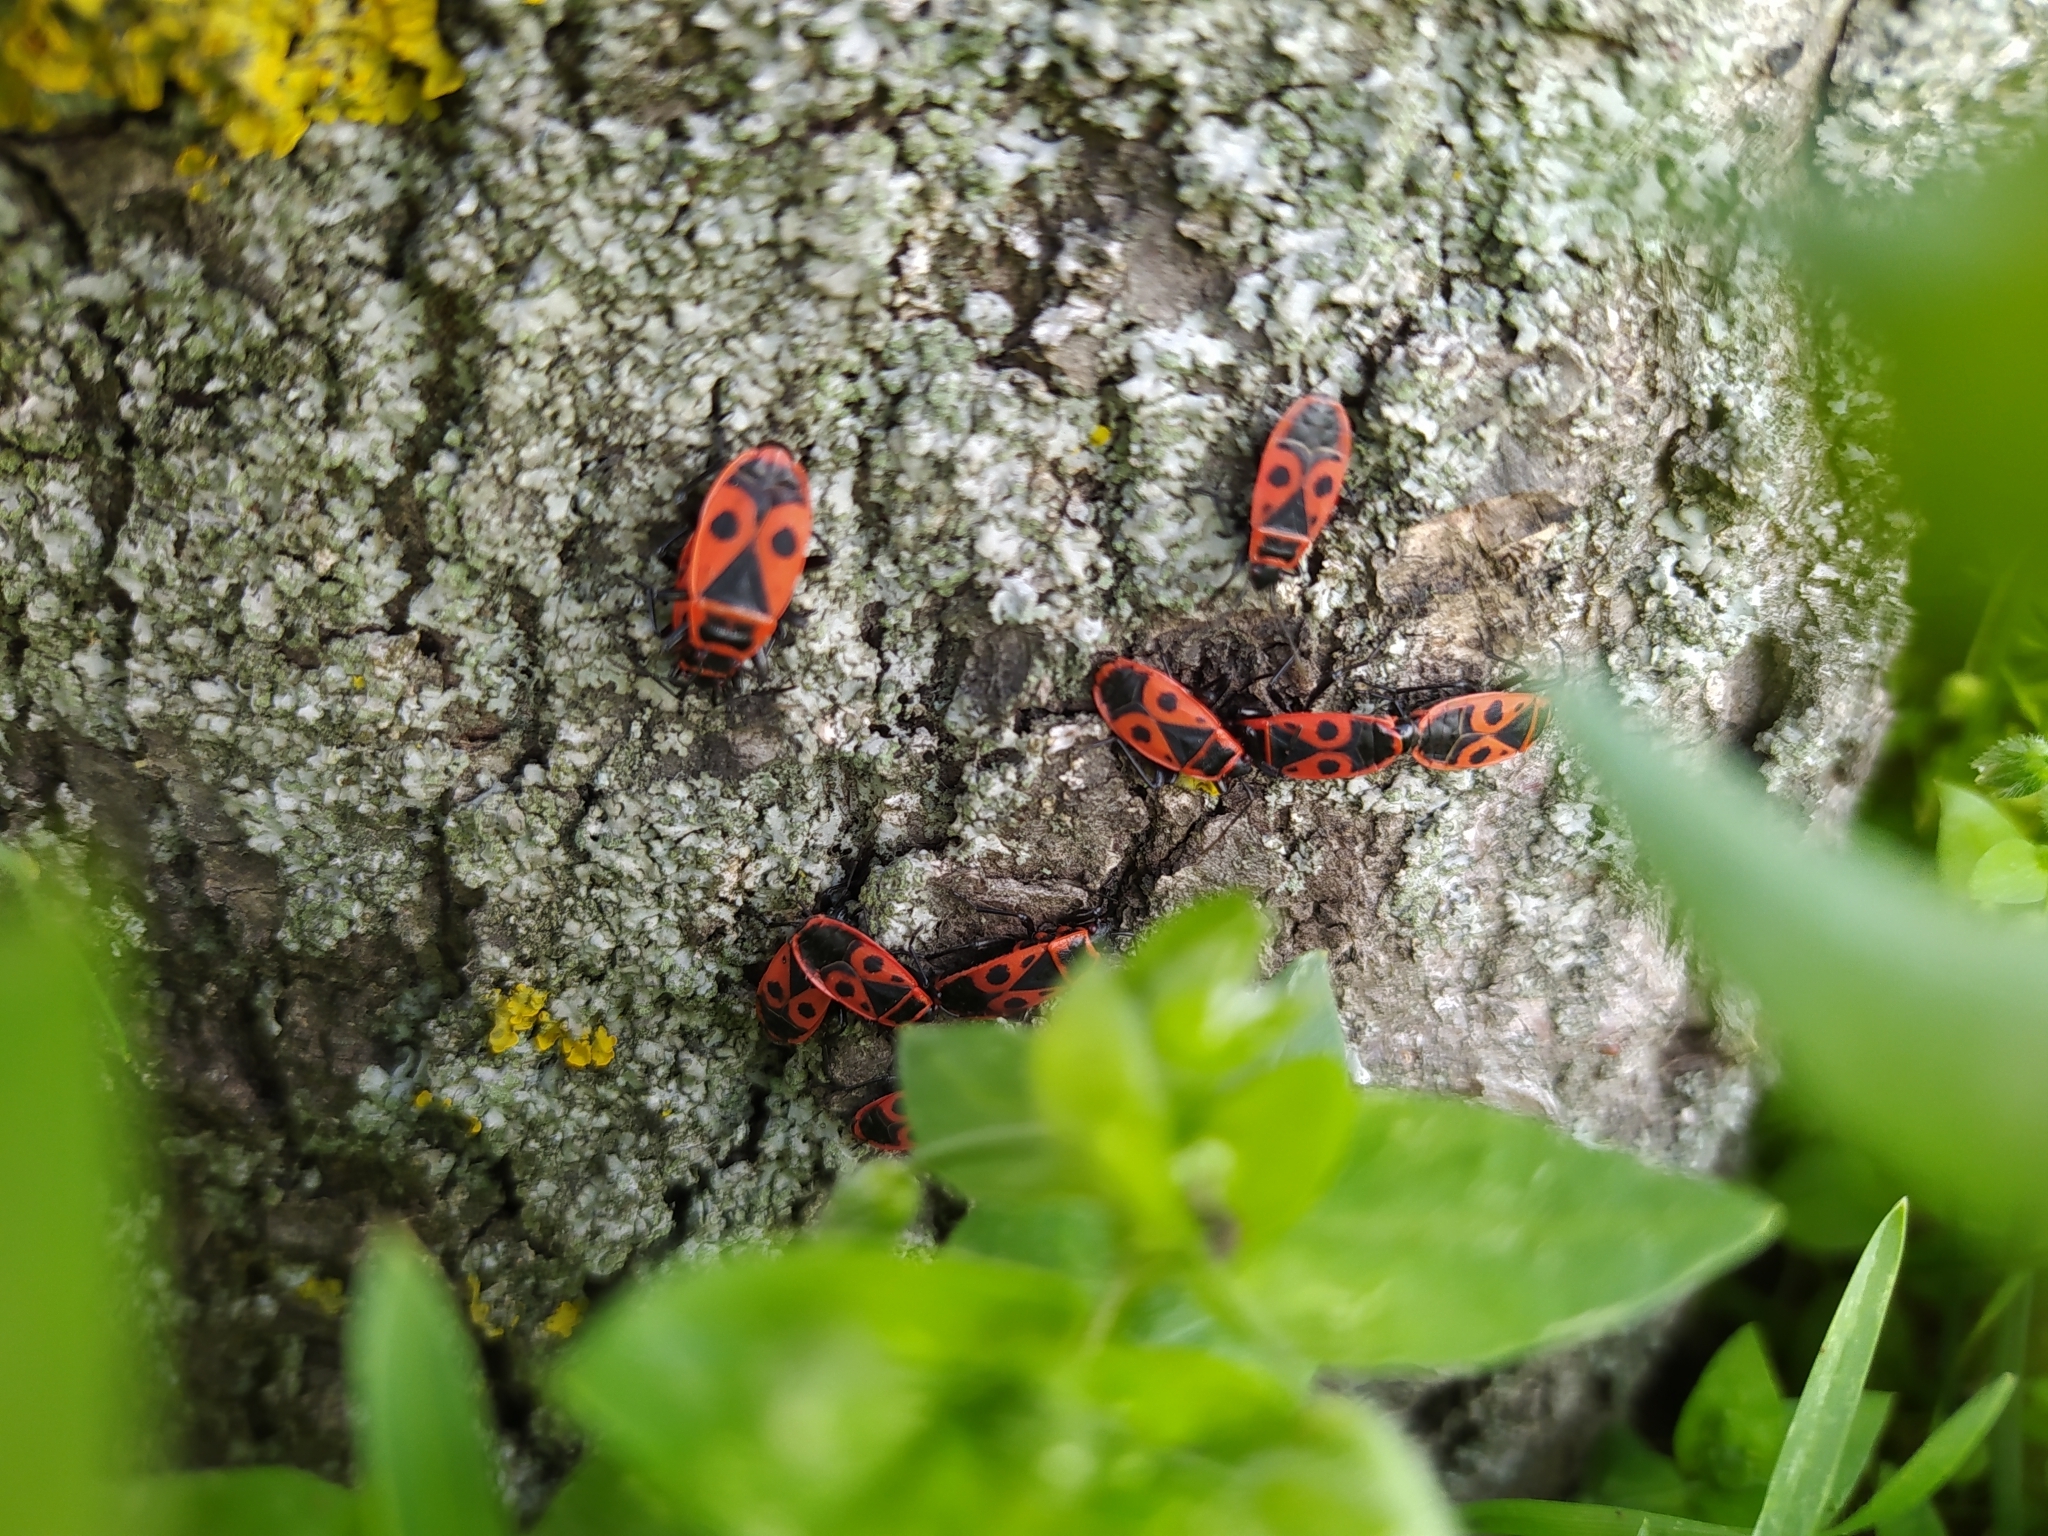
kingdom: Animalia
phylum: Arthropoda
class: Insecta
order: Hemiptera
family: Pyrrhocoridae
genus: Pyrrhocoris
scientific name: Pyrrhocoris apterus
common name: Firebug
